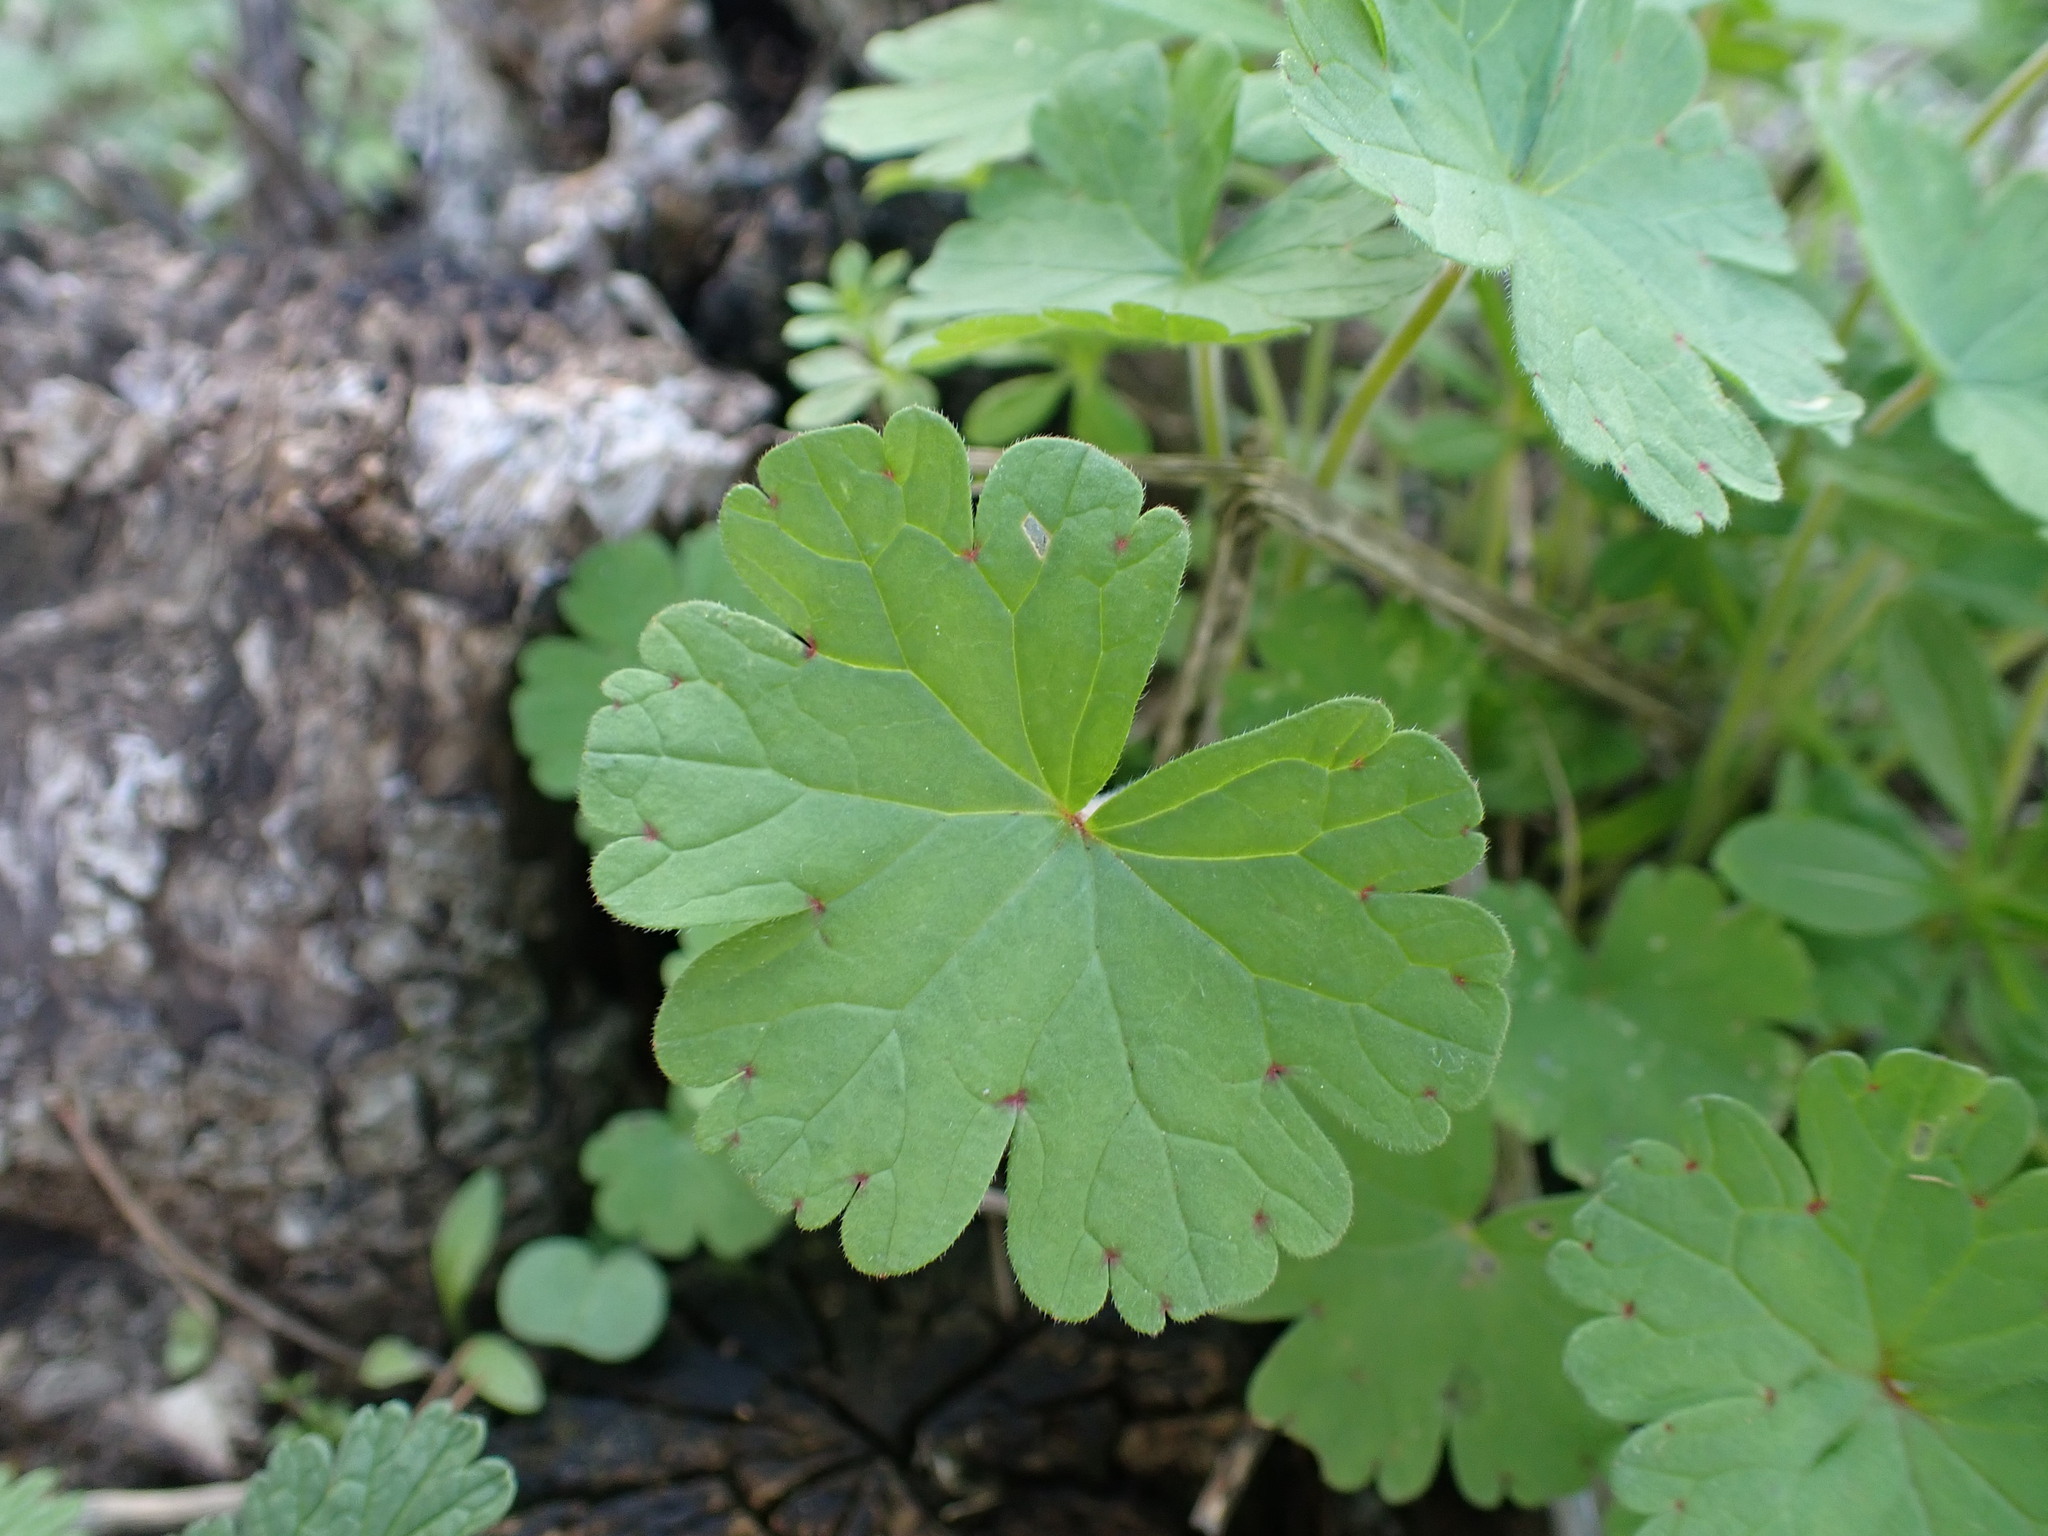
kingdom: Plantae
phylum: Tracheophyta
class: Magnoliopsida
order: Geraniales
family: Geraniaceae
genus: Geranium
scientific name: Geranium rotundifolium
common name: Round-leaved crane's-bill
